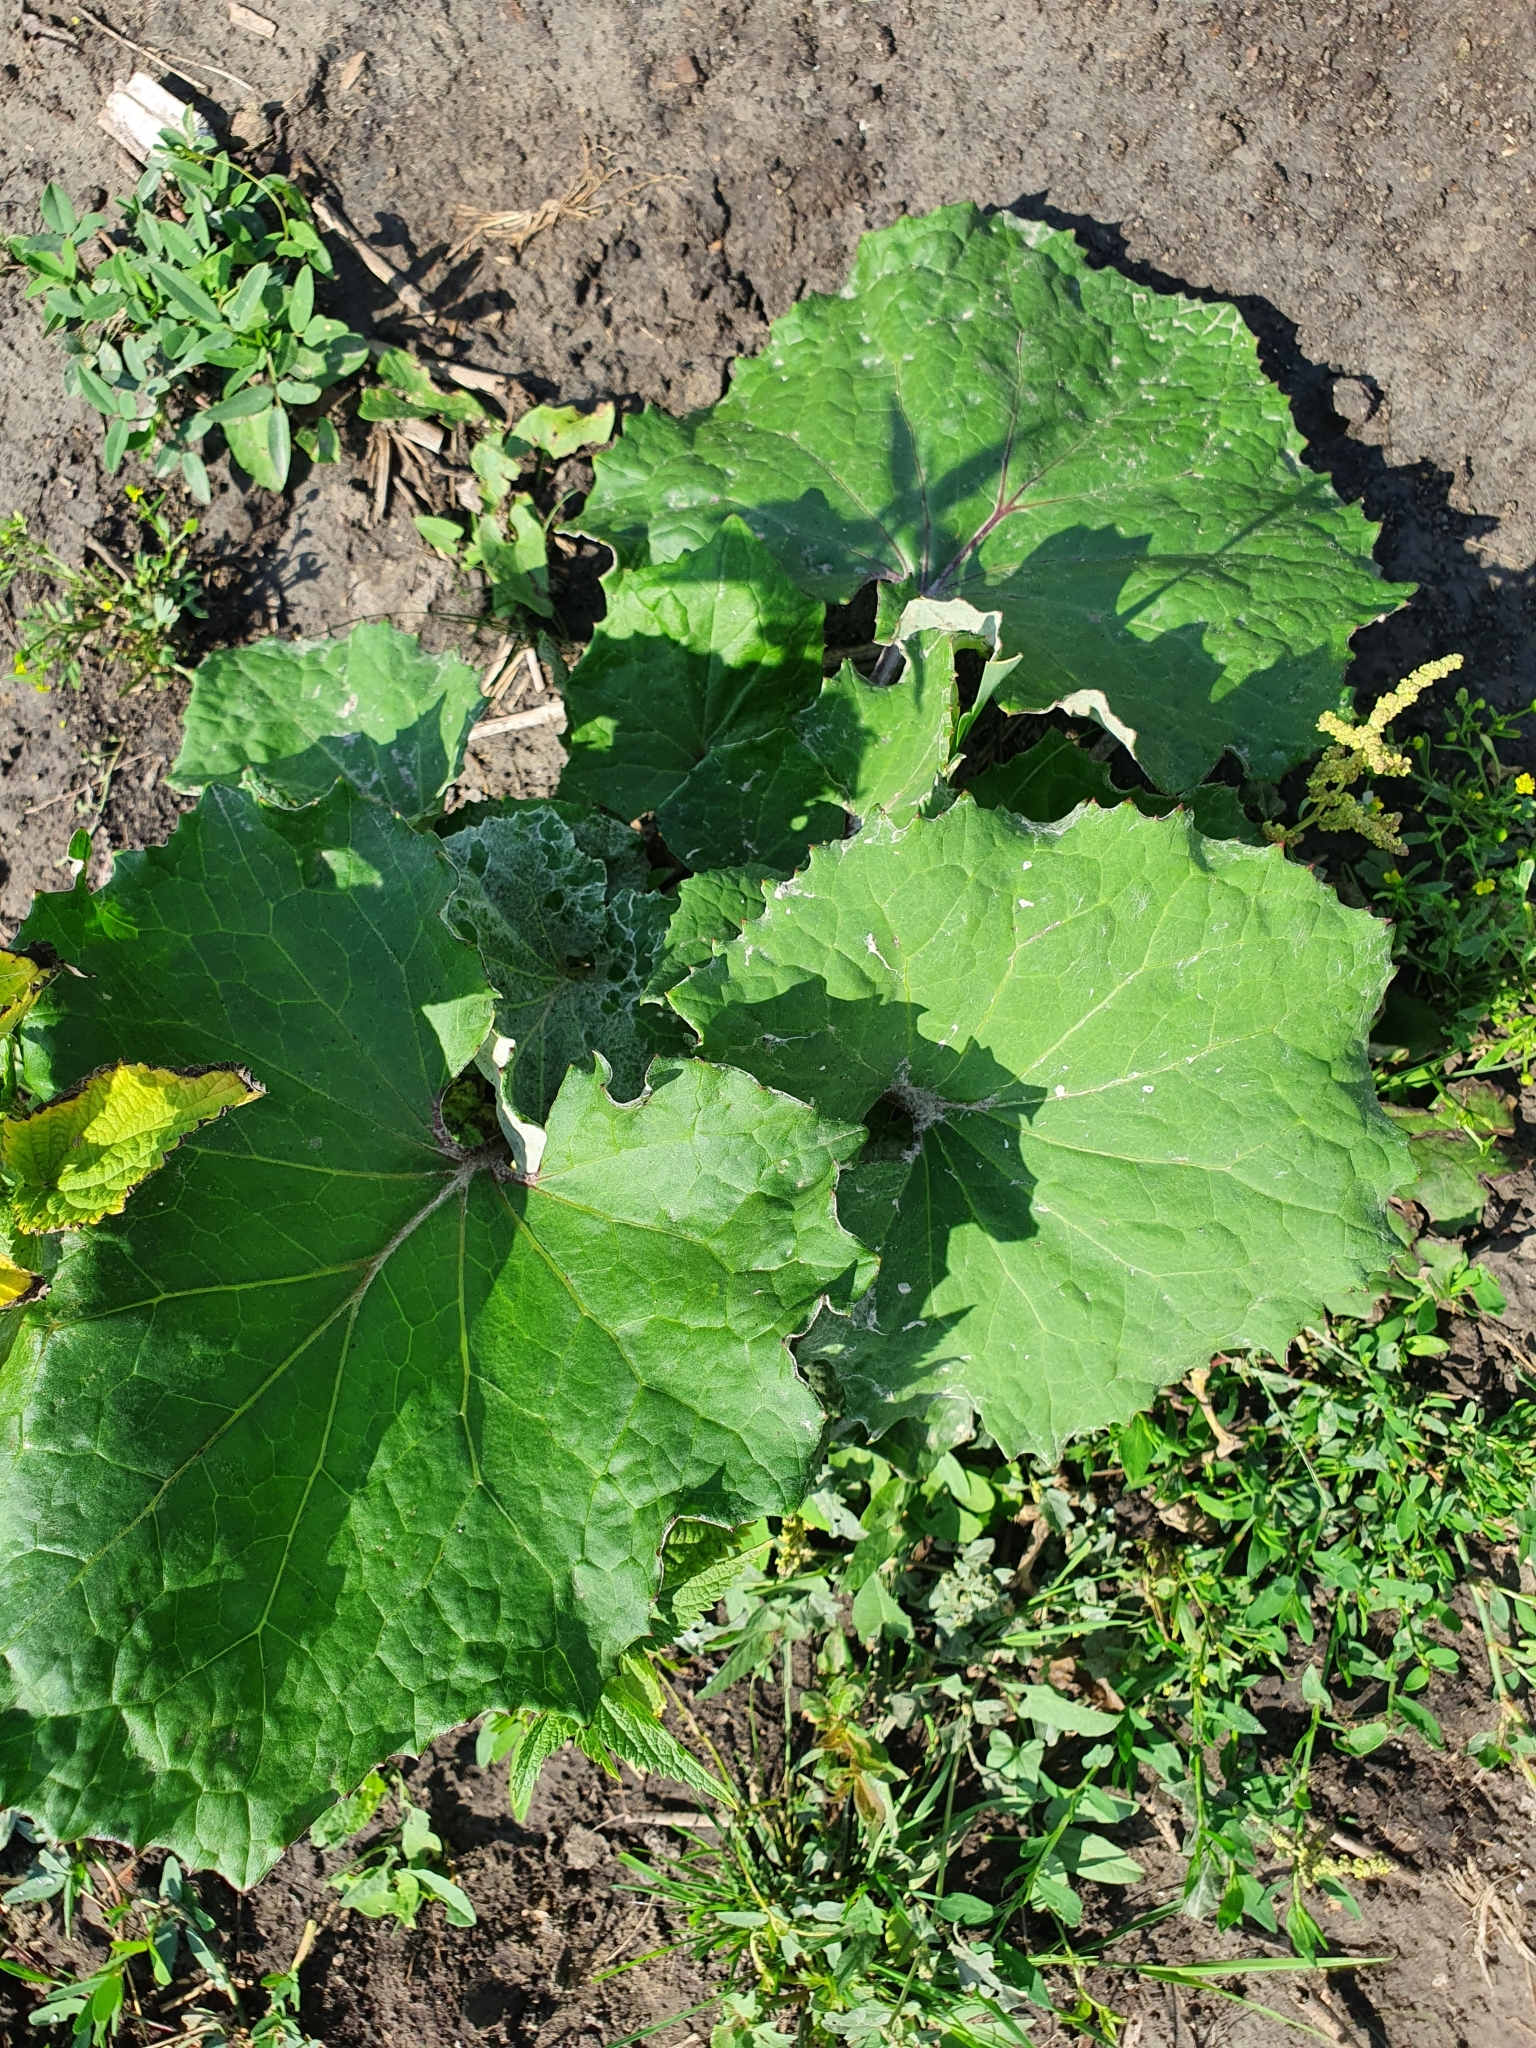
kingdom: Plantae
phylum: Tracheophyta
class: Magnoliopsida
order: Asterales
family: Asteraceae
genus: Tussilago
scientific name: Tussilago farfara
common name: Coltsfoot
